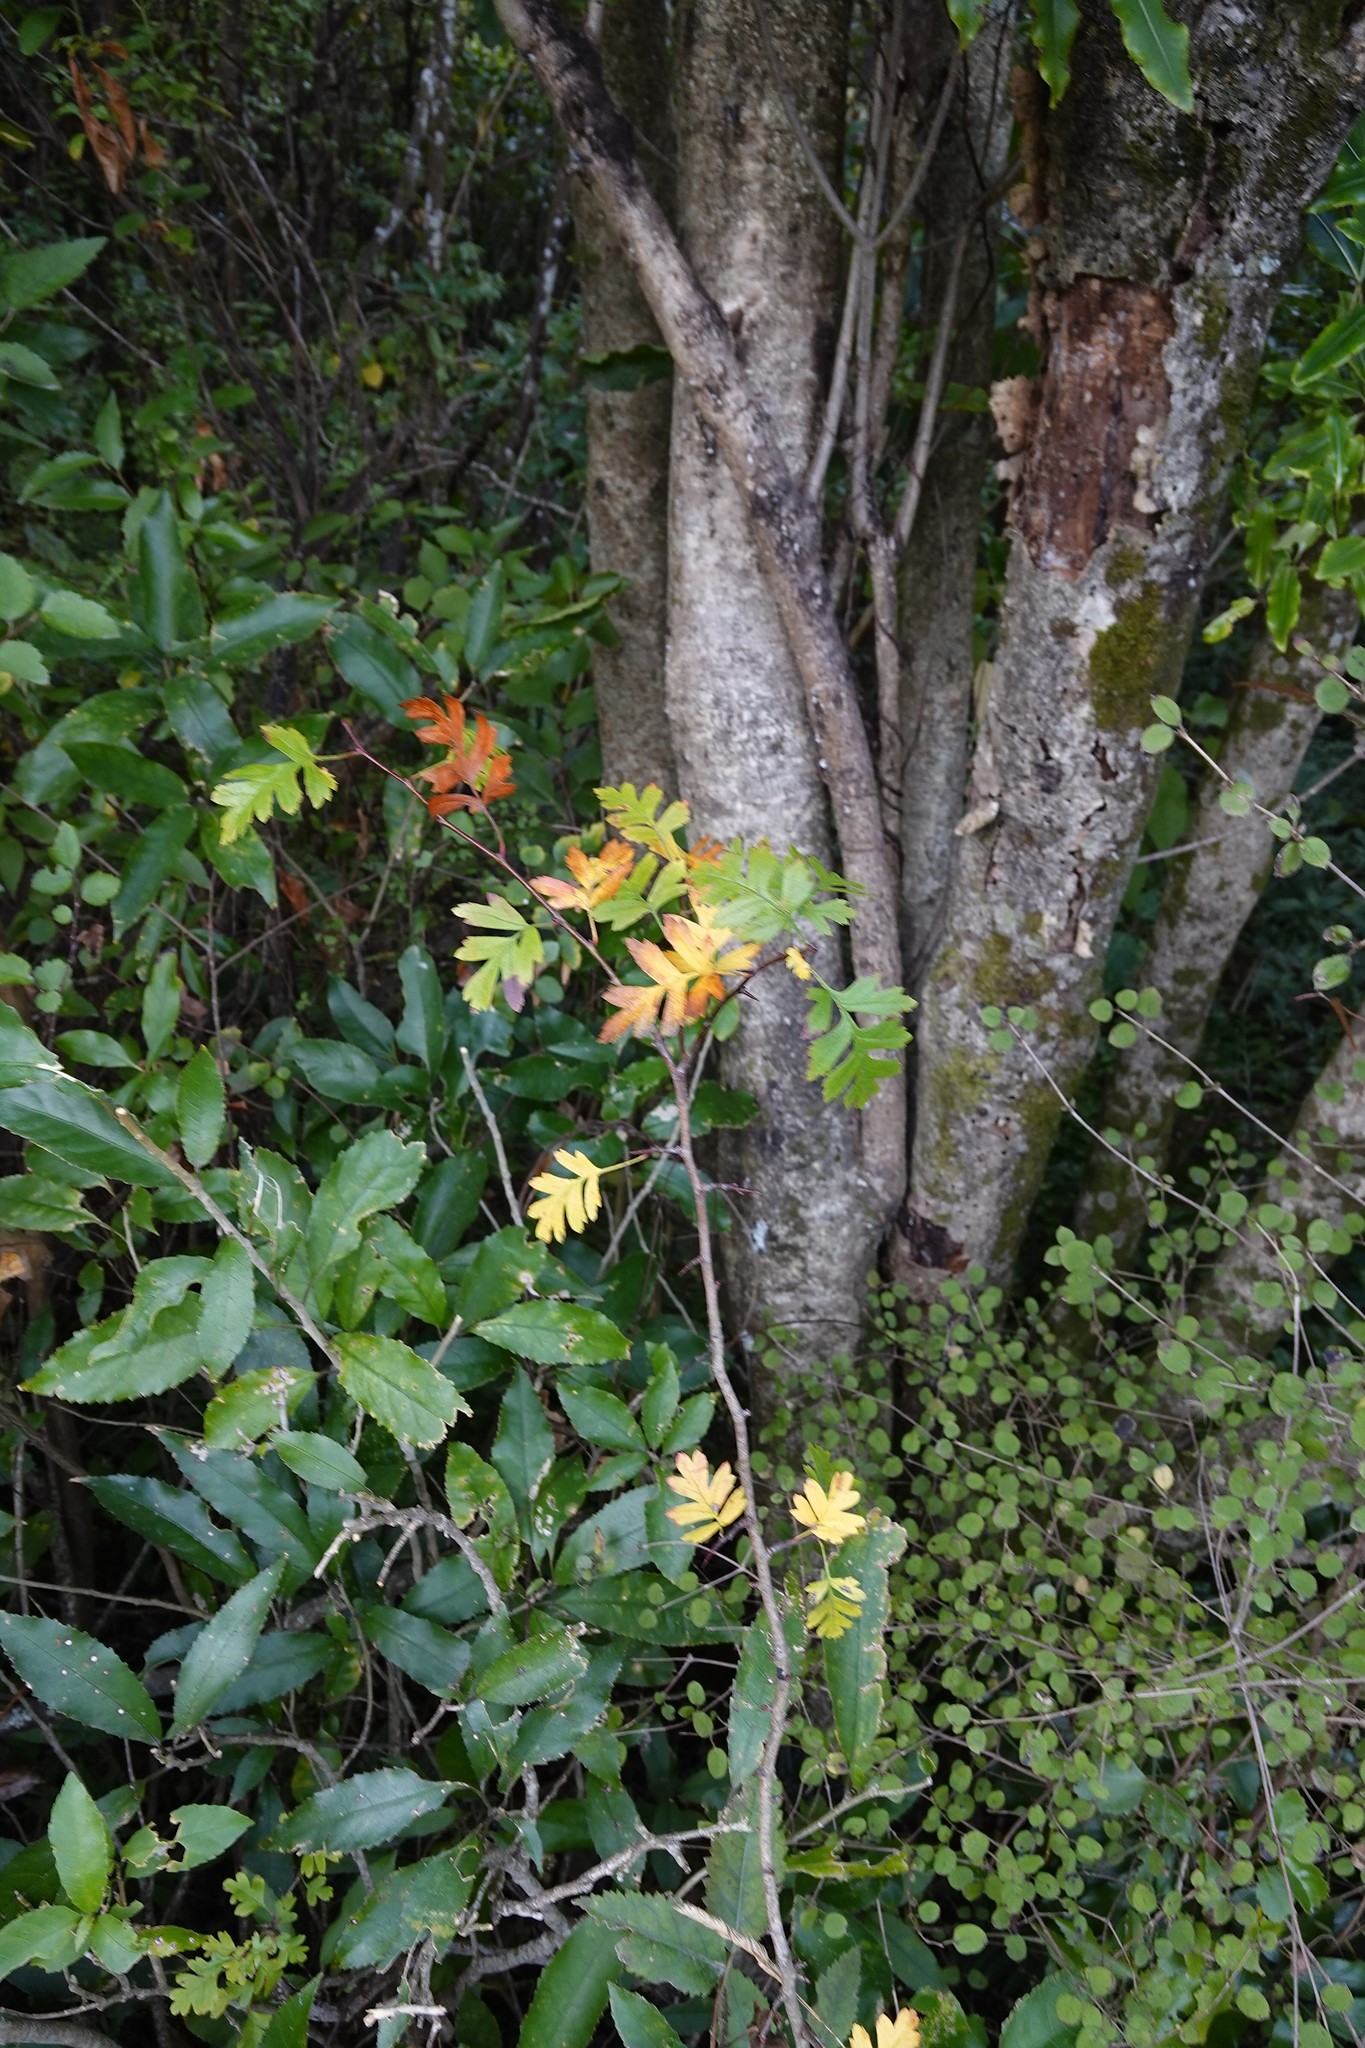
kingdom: Plantae
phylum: Tracheophyta
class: Magnoliopsida
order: Rosales
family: Rosaceae
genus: Crataegus
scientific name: Crataegus monogyna
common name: Hawthorn
